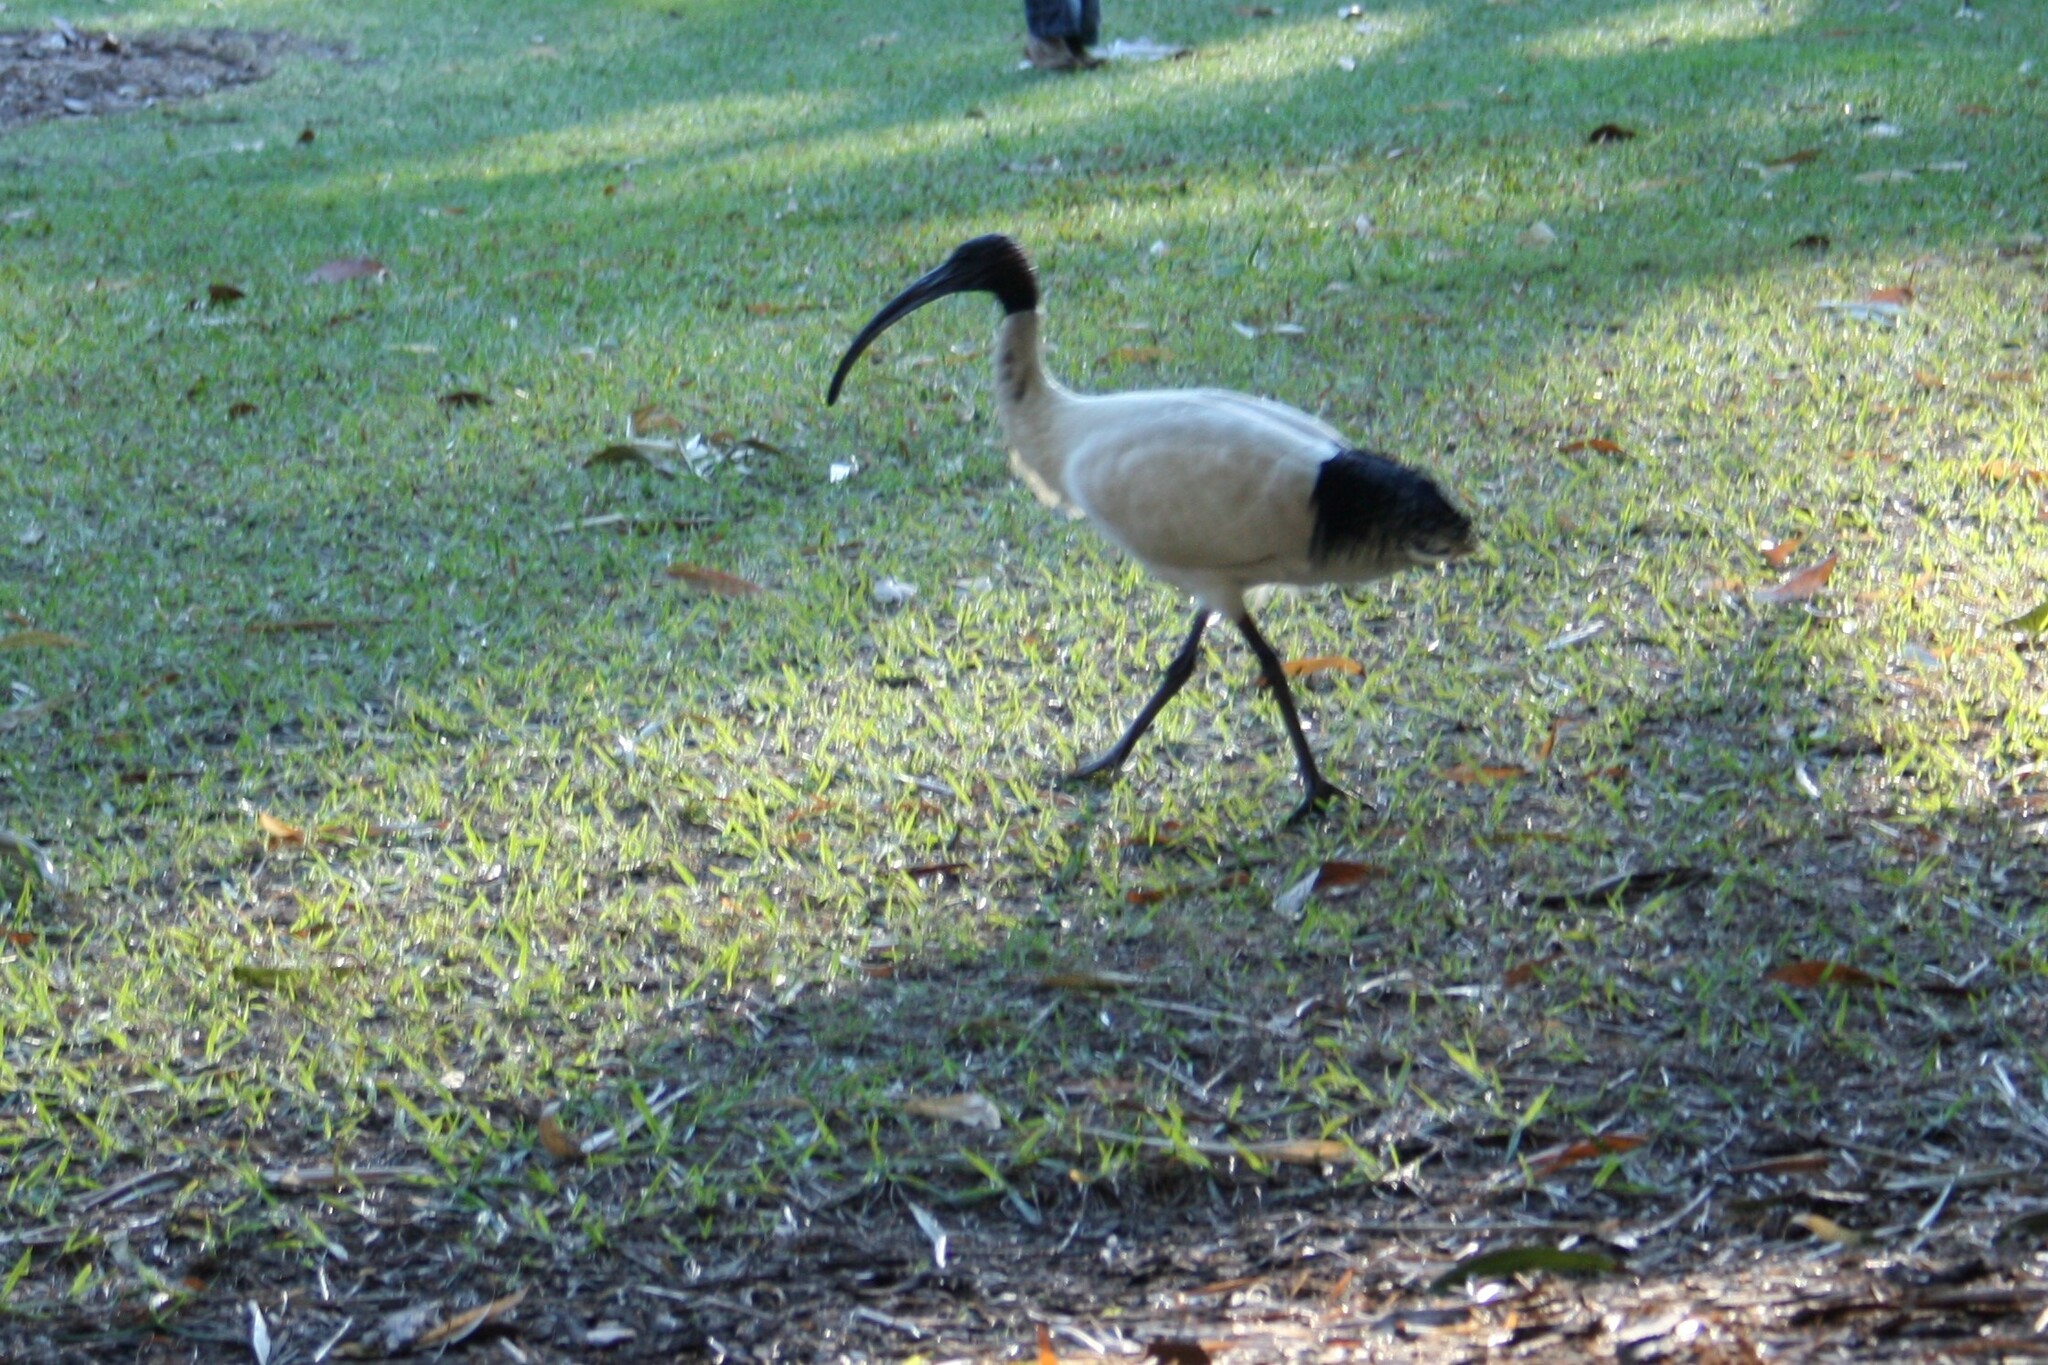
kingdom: Animalia
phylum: Chordata
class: Aves
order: Pelecaniformes
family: Threskiornithidae
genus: Threskiornis
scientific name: Threskiornis molucca
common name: Australian white ibis
